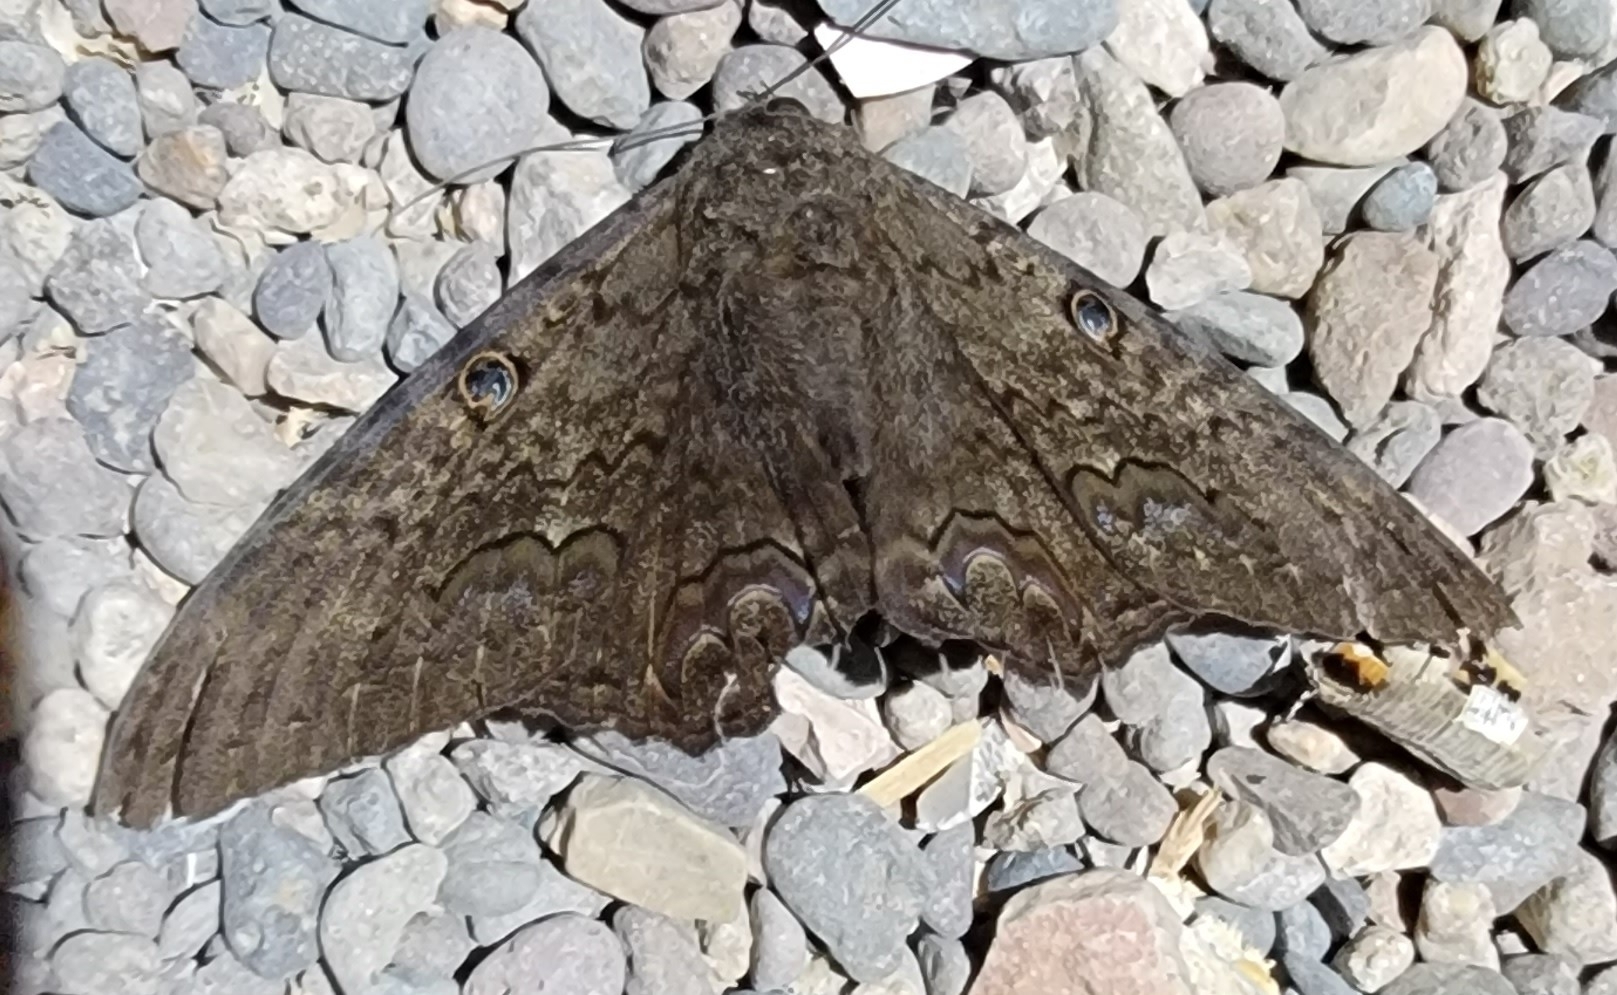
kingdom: Animalia
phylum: Arthropoda
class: Insecta
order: Lepidoptera
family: Erebidae
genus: Ascalapha
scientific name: Ascalapha odorata
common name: Black witch
